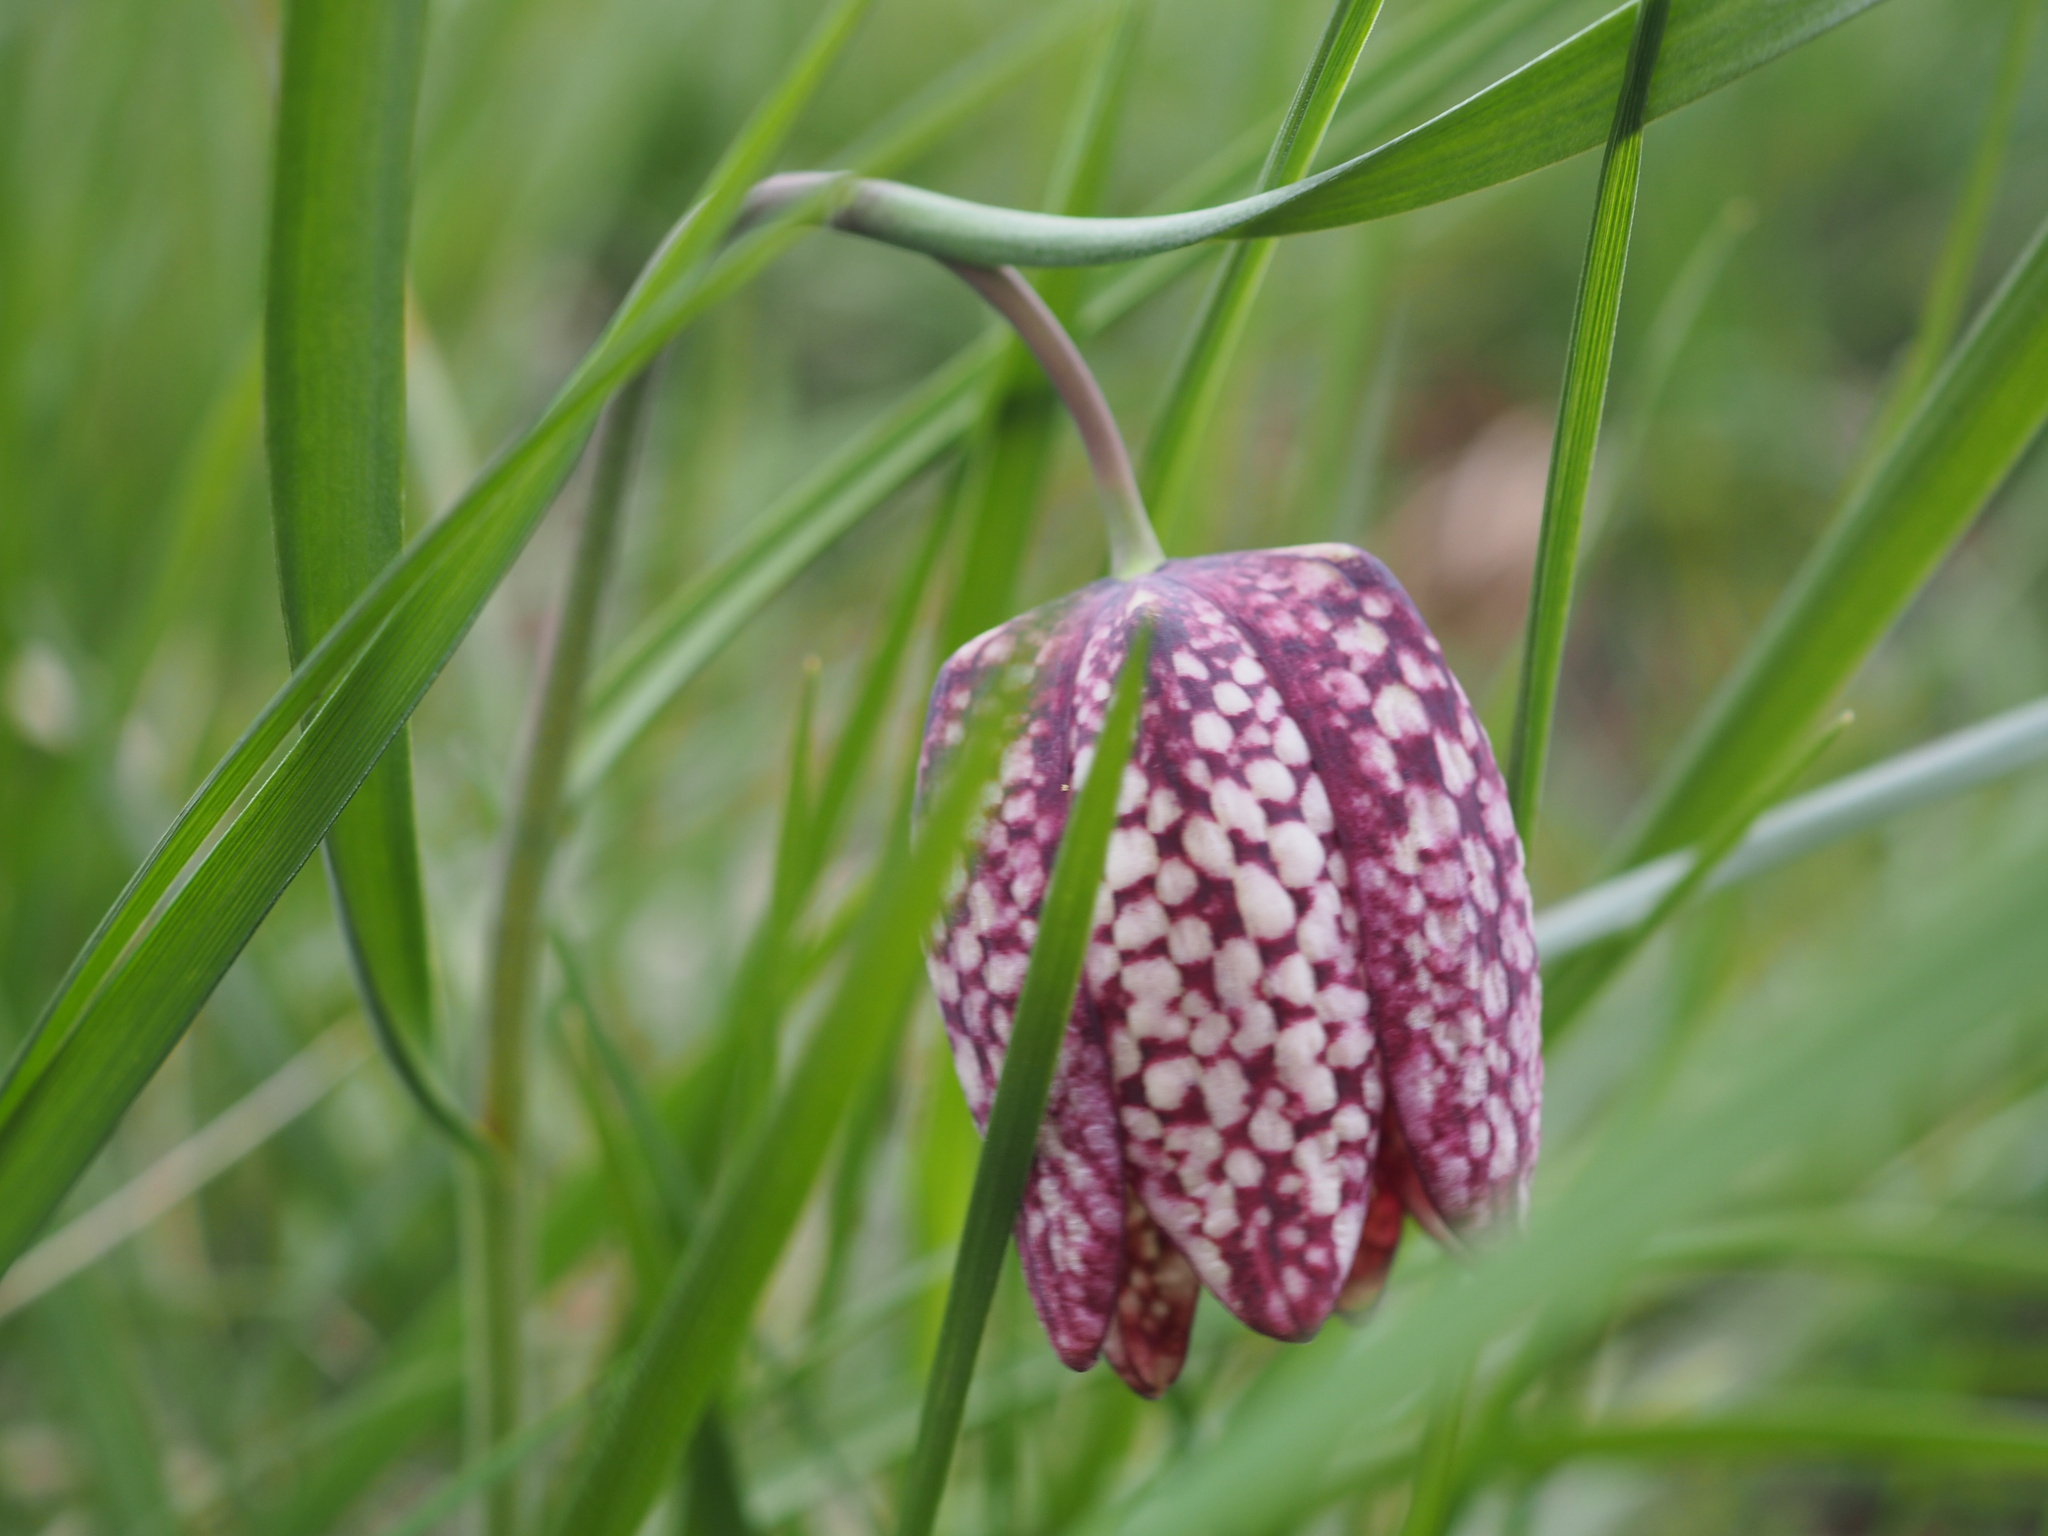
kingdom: Plantae
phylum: Tracheophyta
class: Liliopsida
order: Liliales
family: Liliaceae
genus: Fritillaria
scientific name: Fritillaria meleagris
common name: Fritillary
